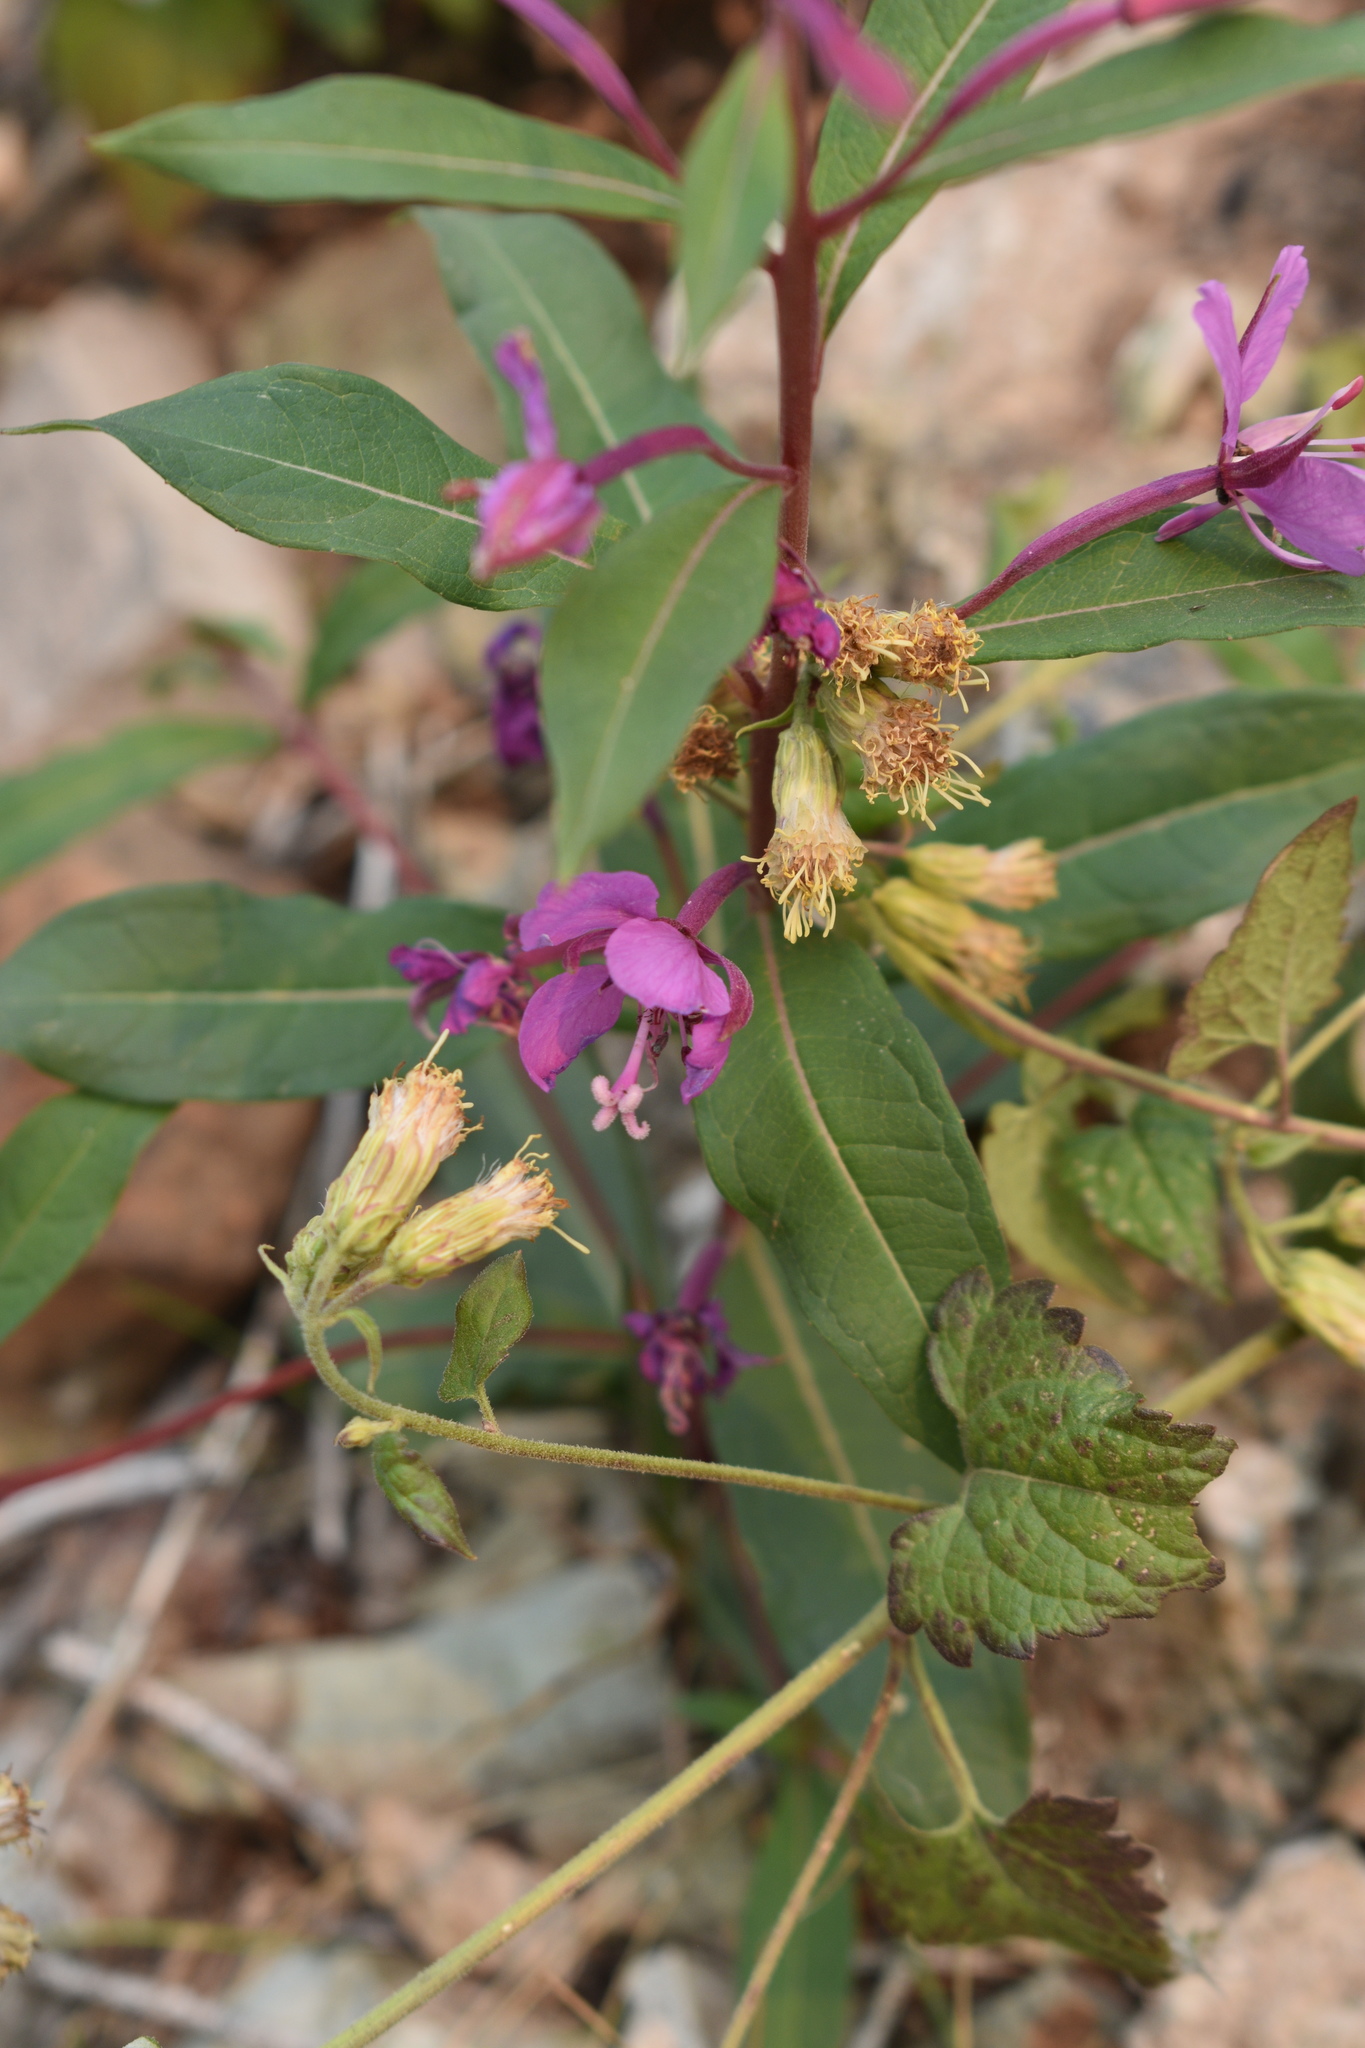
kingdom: Plantae
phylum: Tracheophyta
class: Magnoliopsida
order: Myrtales
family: Onagraceae
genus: Chamaenerion
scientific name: Chamaenerion angustifolium
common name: Fireweed
